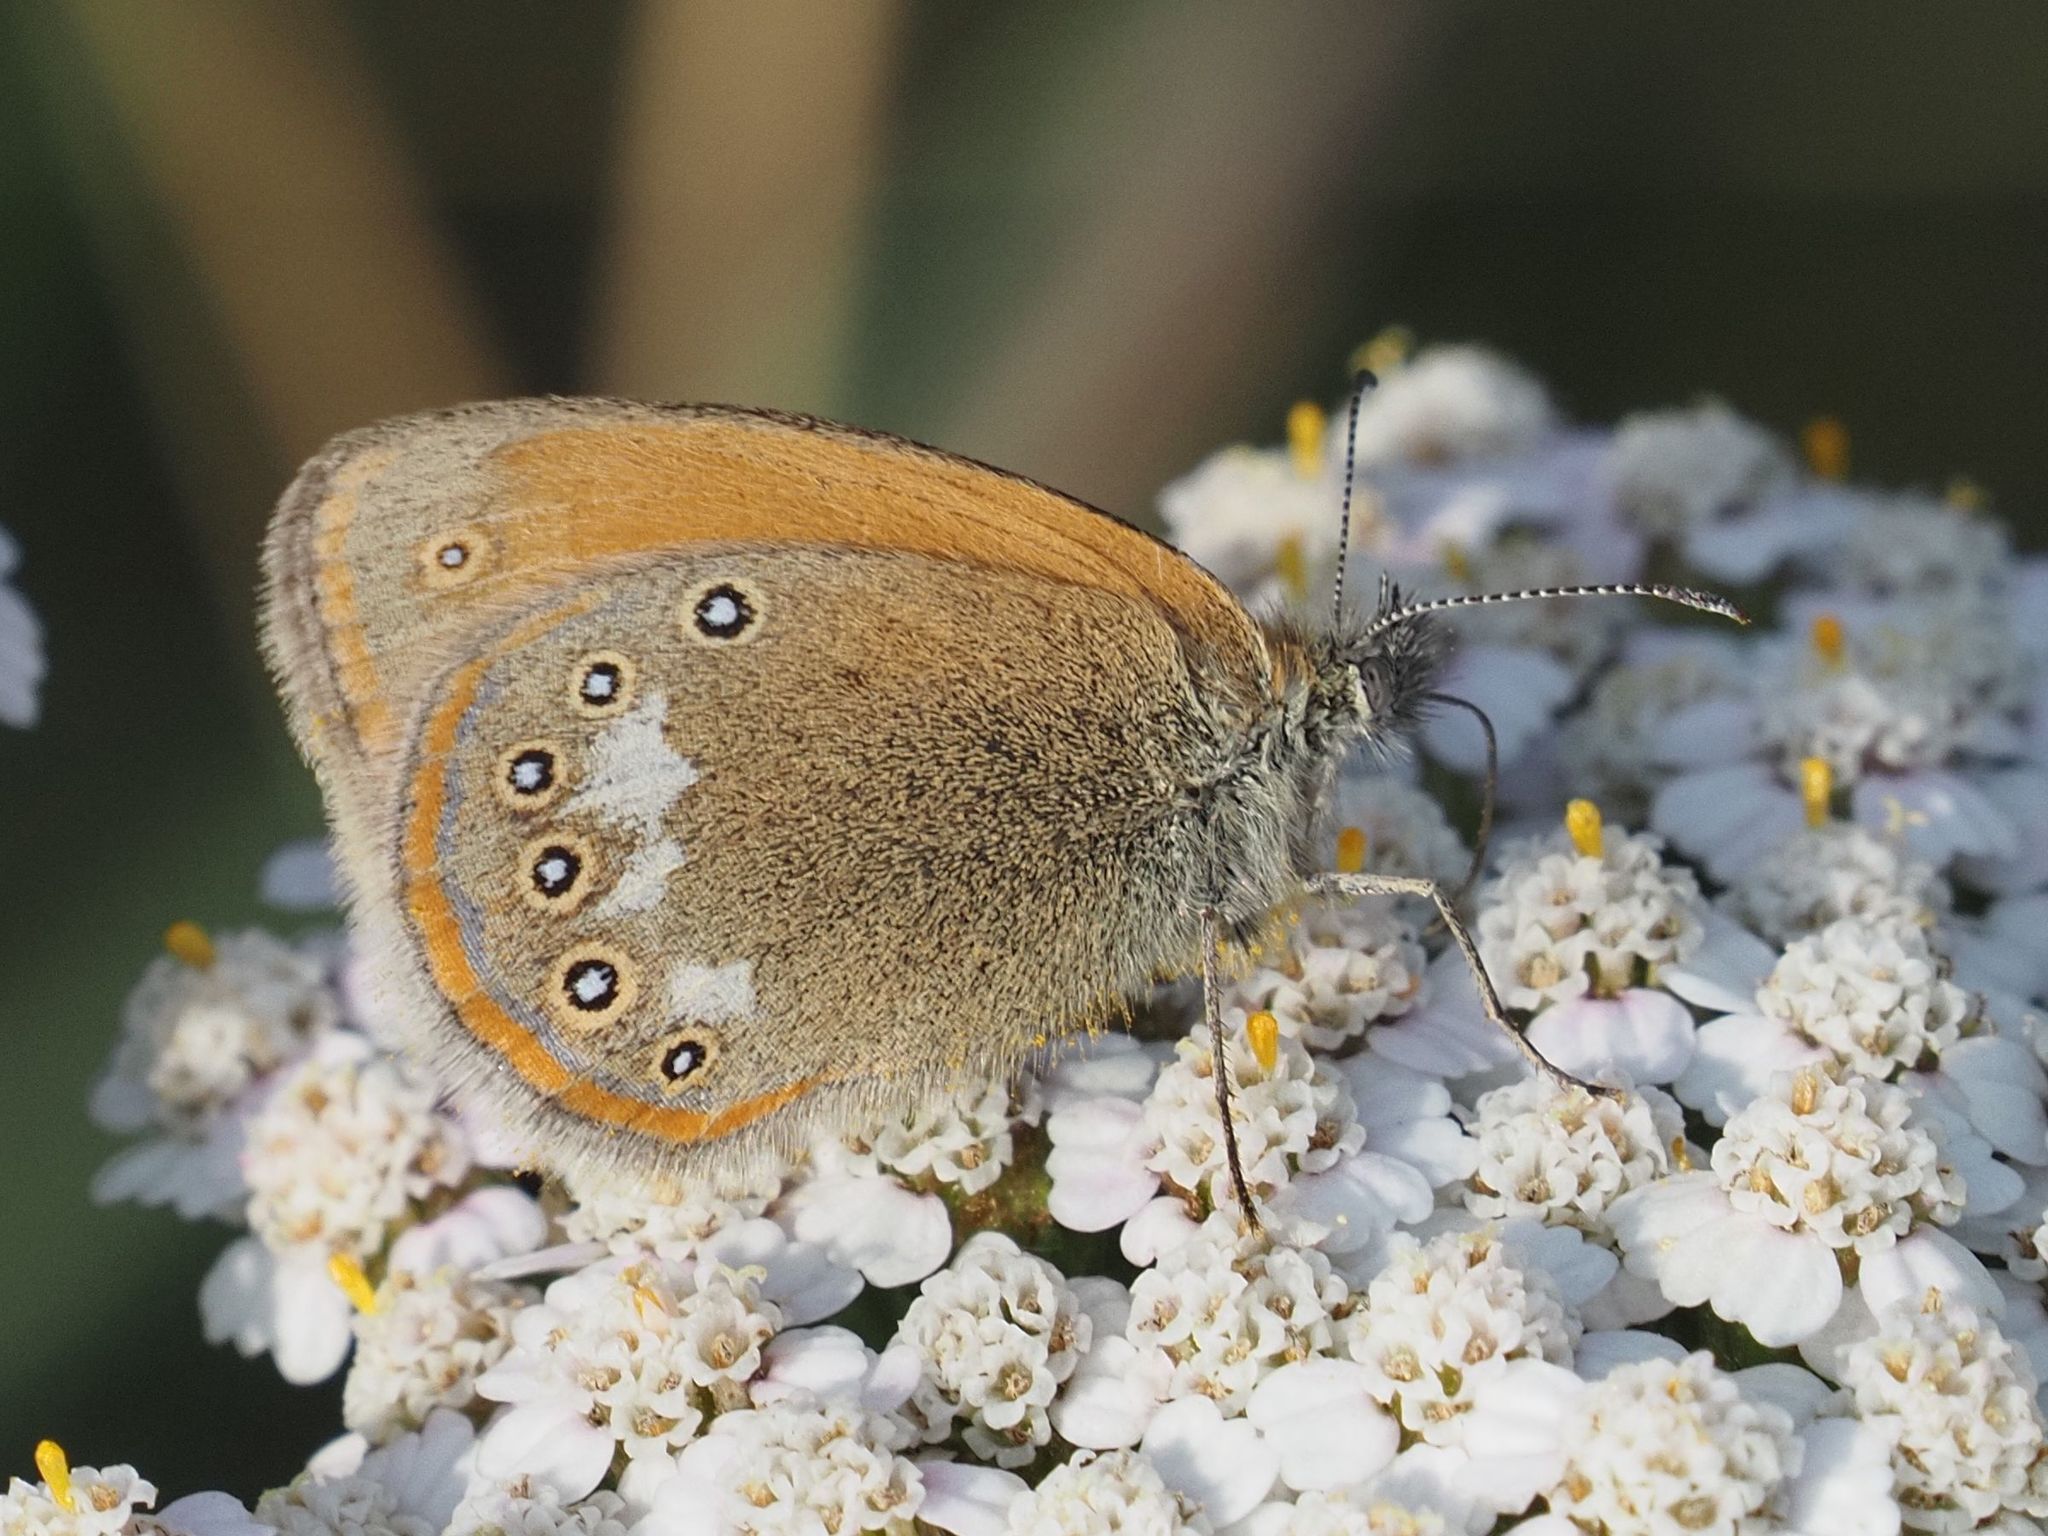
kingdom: Animalia
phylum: Arthropoda
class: Insecta
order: Lepidoptera
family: Nymphalidae
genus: Coenonympha
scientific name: Coenonympha iphis
